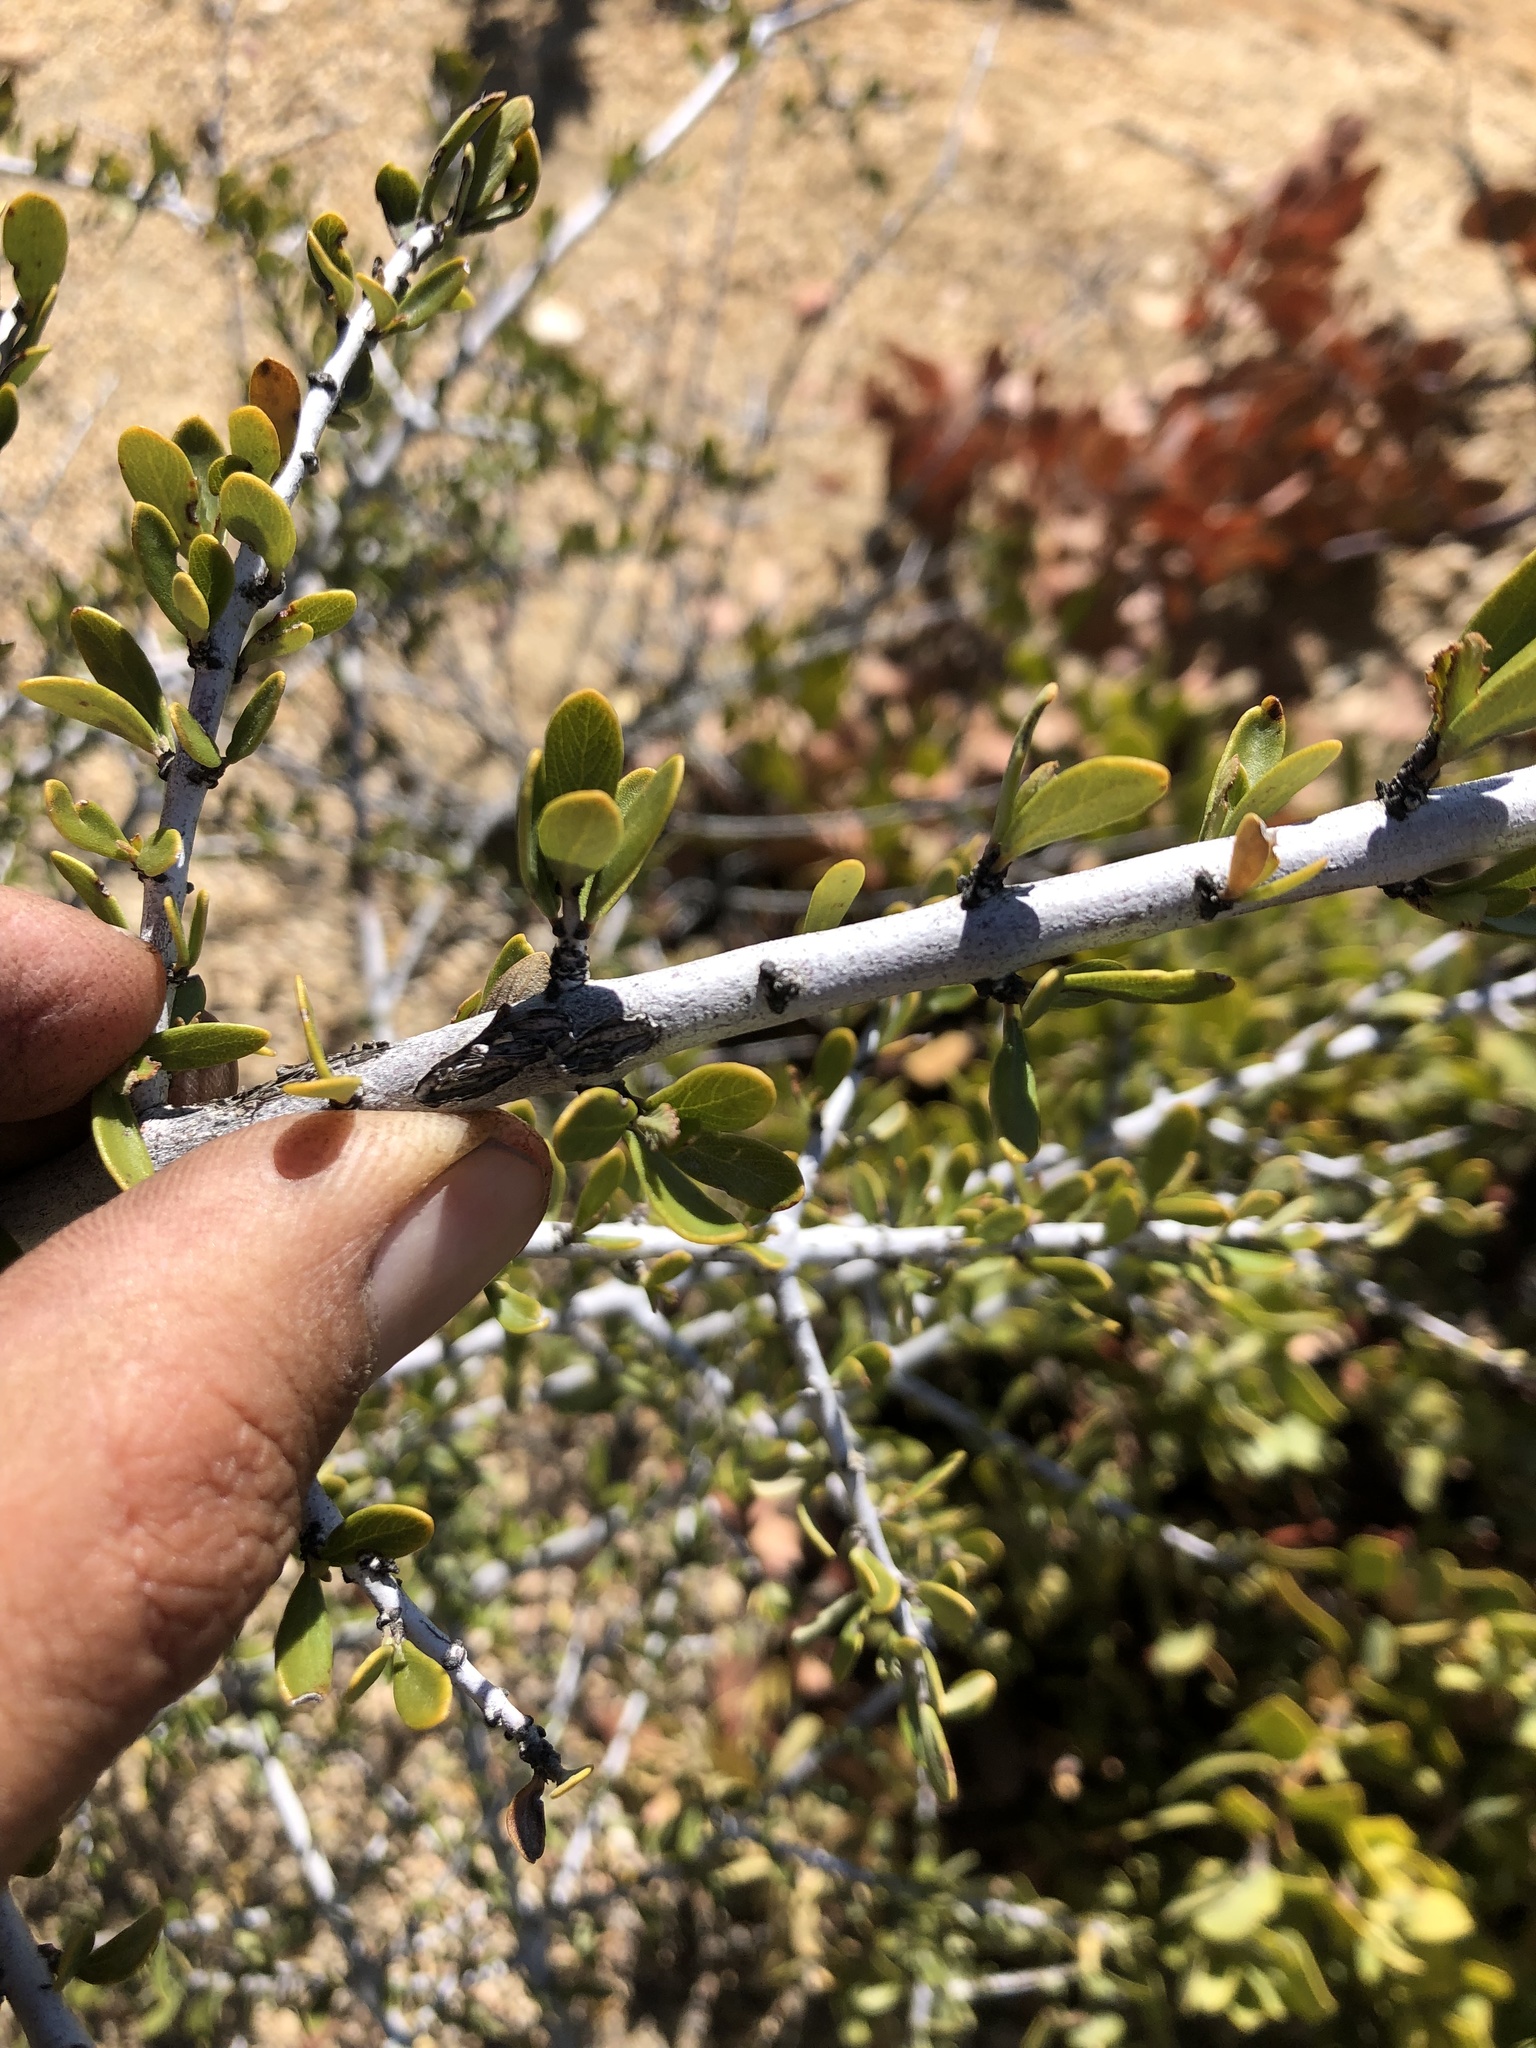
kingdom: Plantae
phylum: Tracheophyta
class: Magnoliopsida
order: Rosales
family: Rhamnaceae
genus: Ceanothus
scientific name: Ceanothus cuneatus
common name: Cuneate ceanothus
